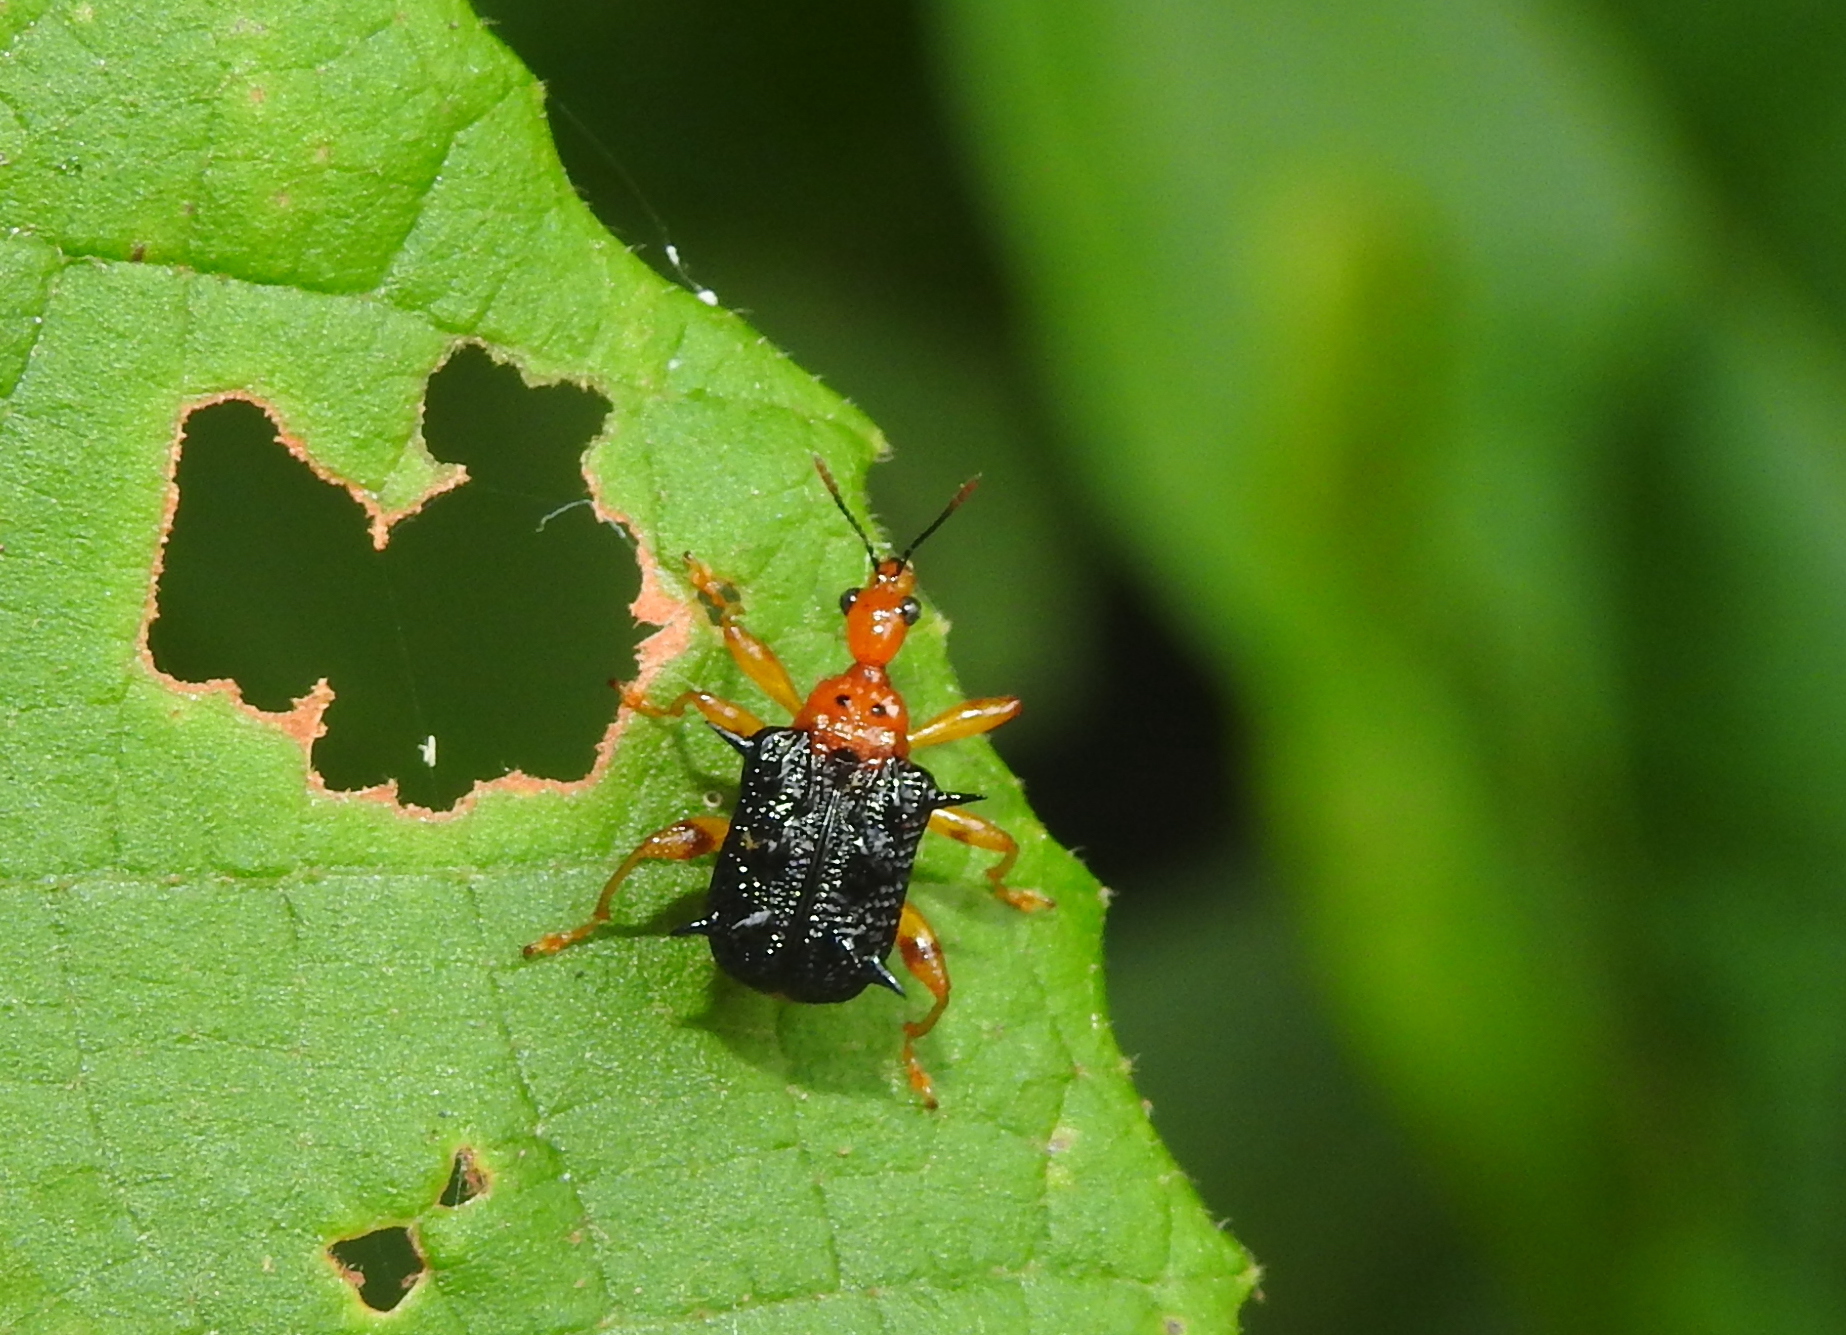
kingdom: Animalia
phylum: Arthropoda
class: Insecta
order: Coleoptera
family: Attelabidae
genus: Hoplapoderus
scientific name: Hoplapoderus hystrix
